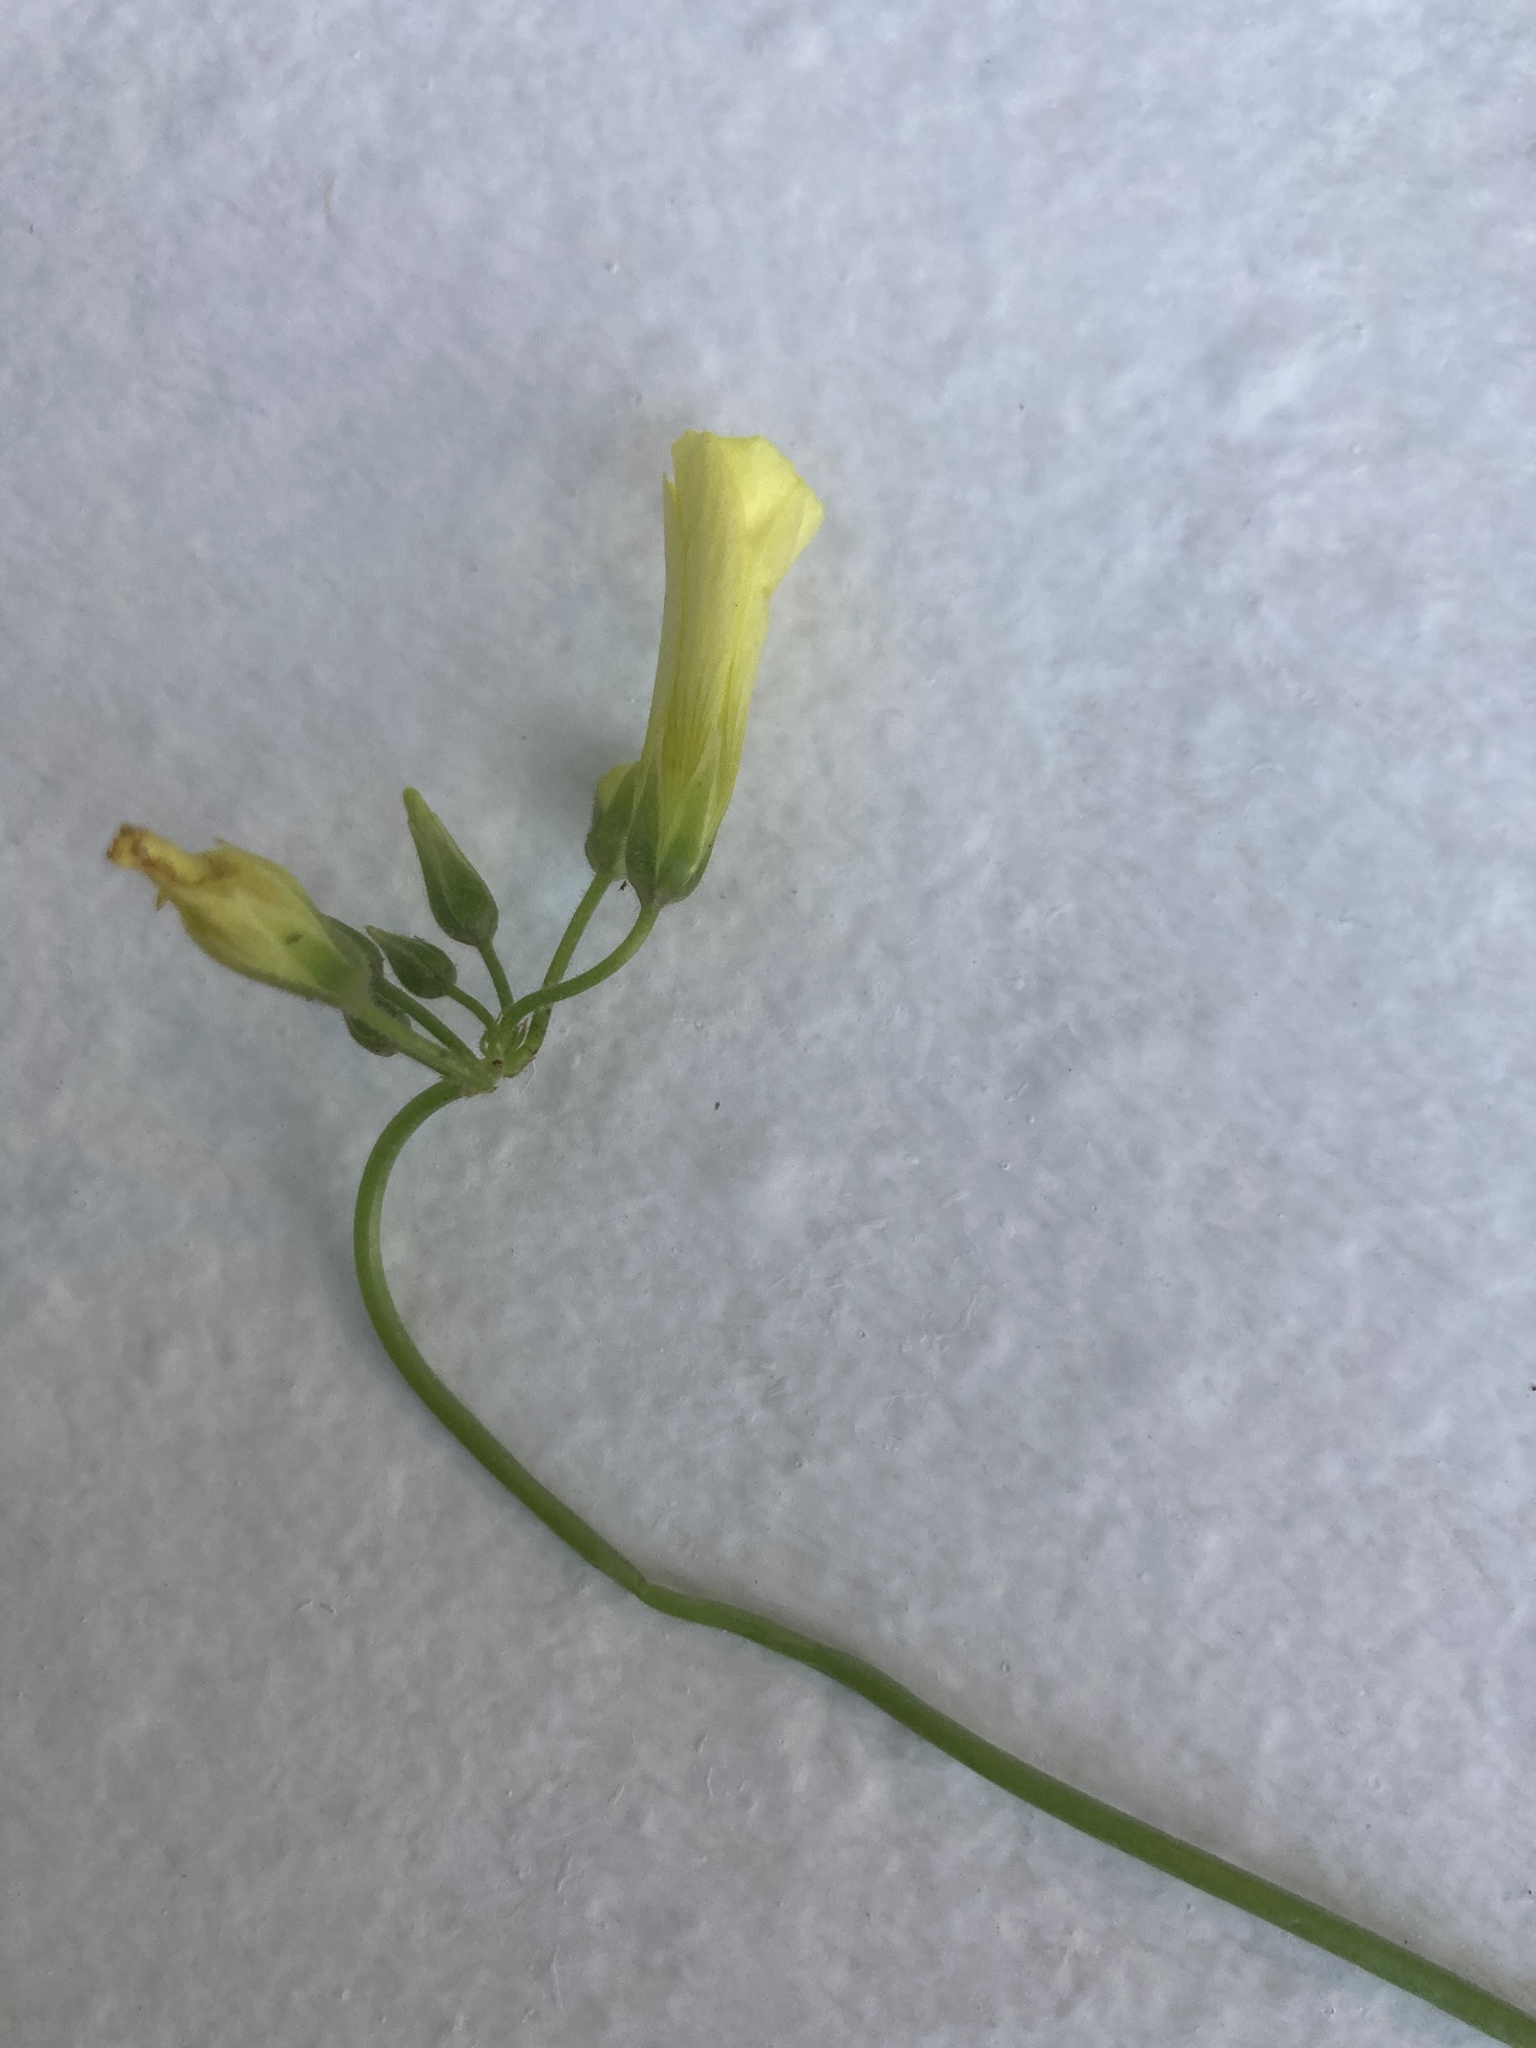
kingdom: Plantae
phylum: Tracheophyta
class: Magnoliopsida
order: Oxalidales
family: Oxalidaceae
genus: Oxalis
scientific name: Oxalis pes-caprae
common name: Bermuda-buttercup
